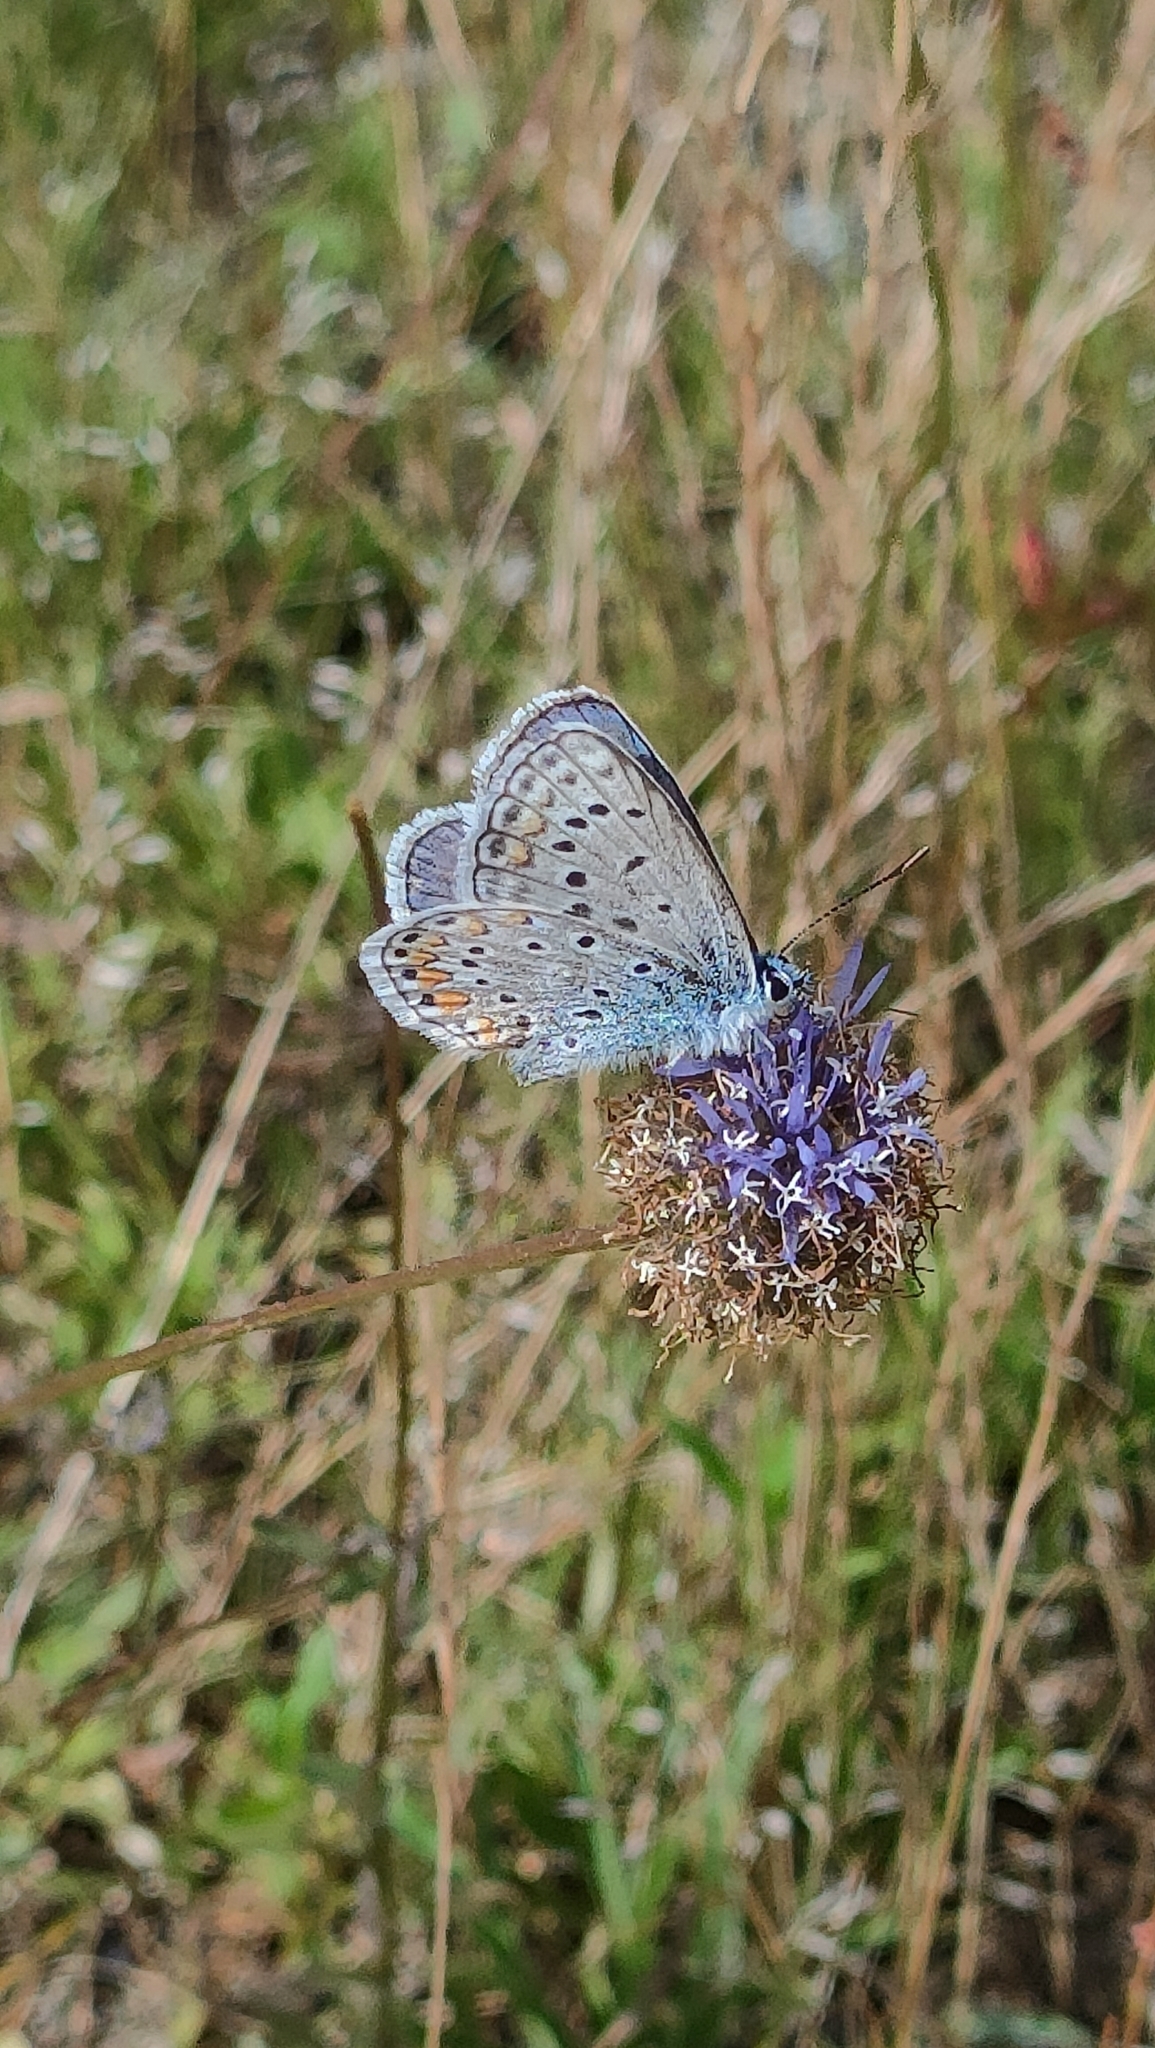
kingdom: Animalia
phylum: Arthropoda
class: Insecta
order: Lepidoptera
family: Lycaenidae
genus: Polyommatus
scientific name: Polyommatus icarus
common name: Common blue
